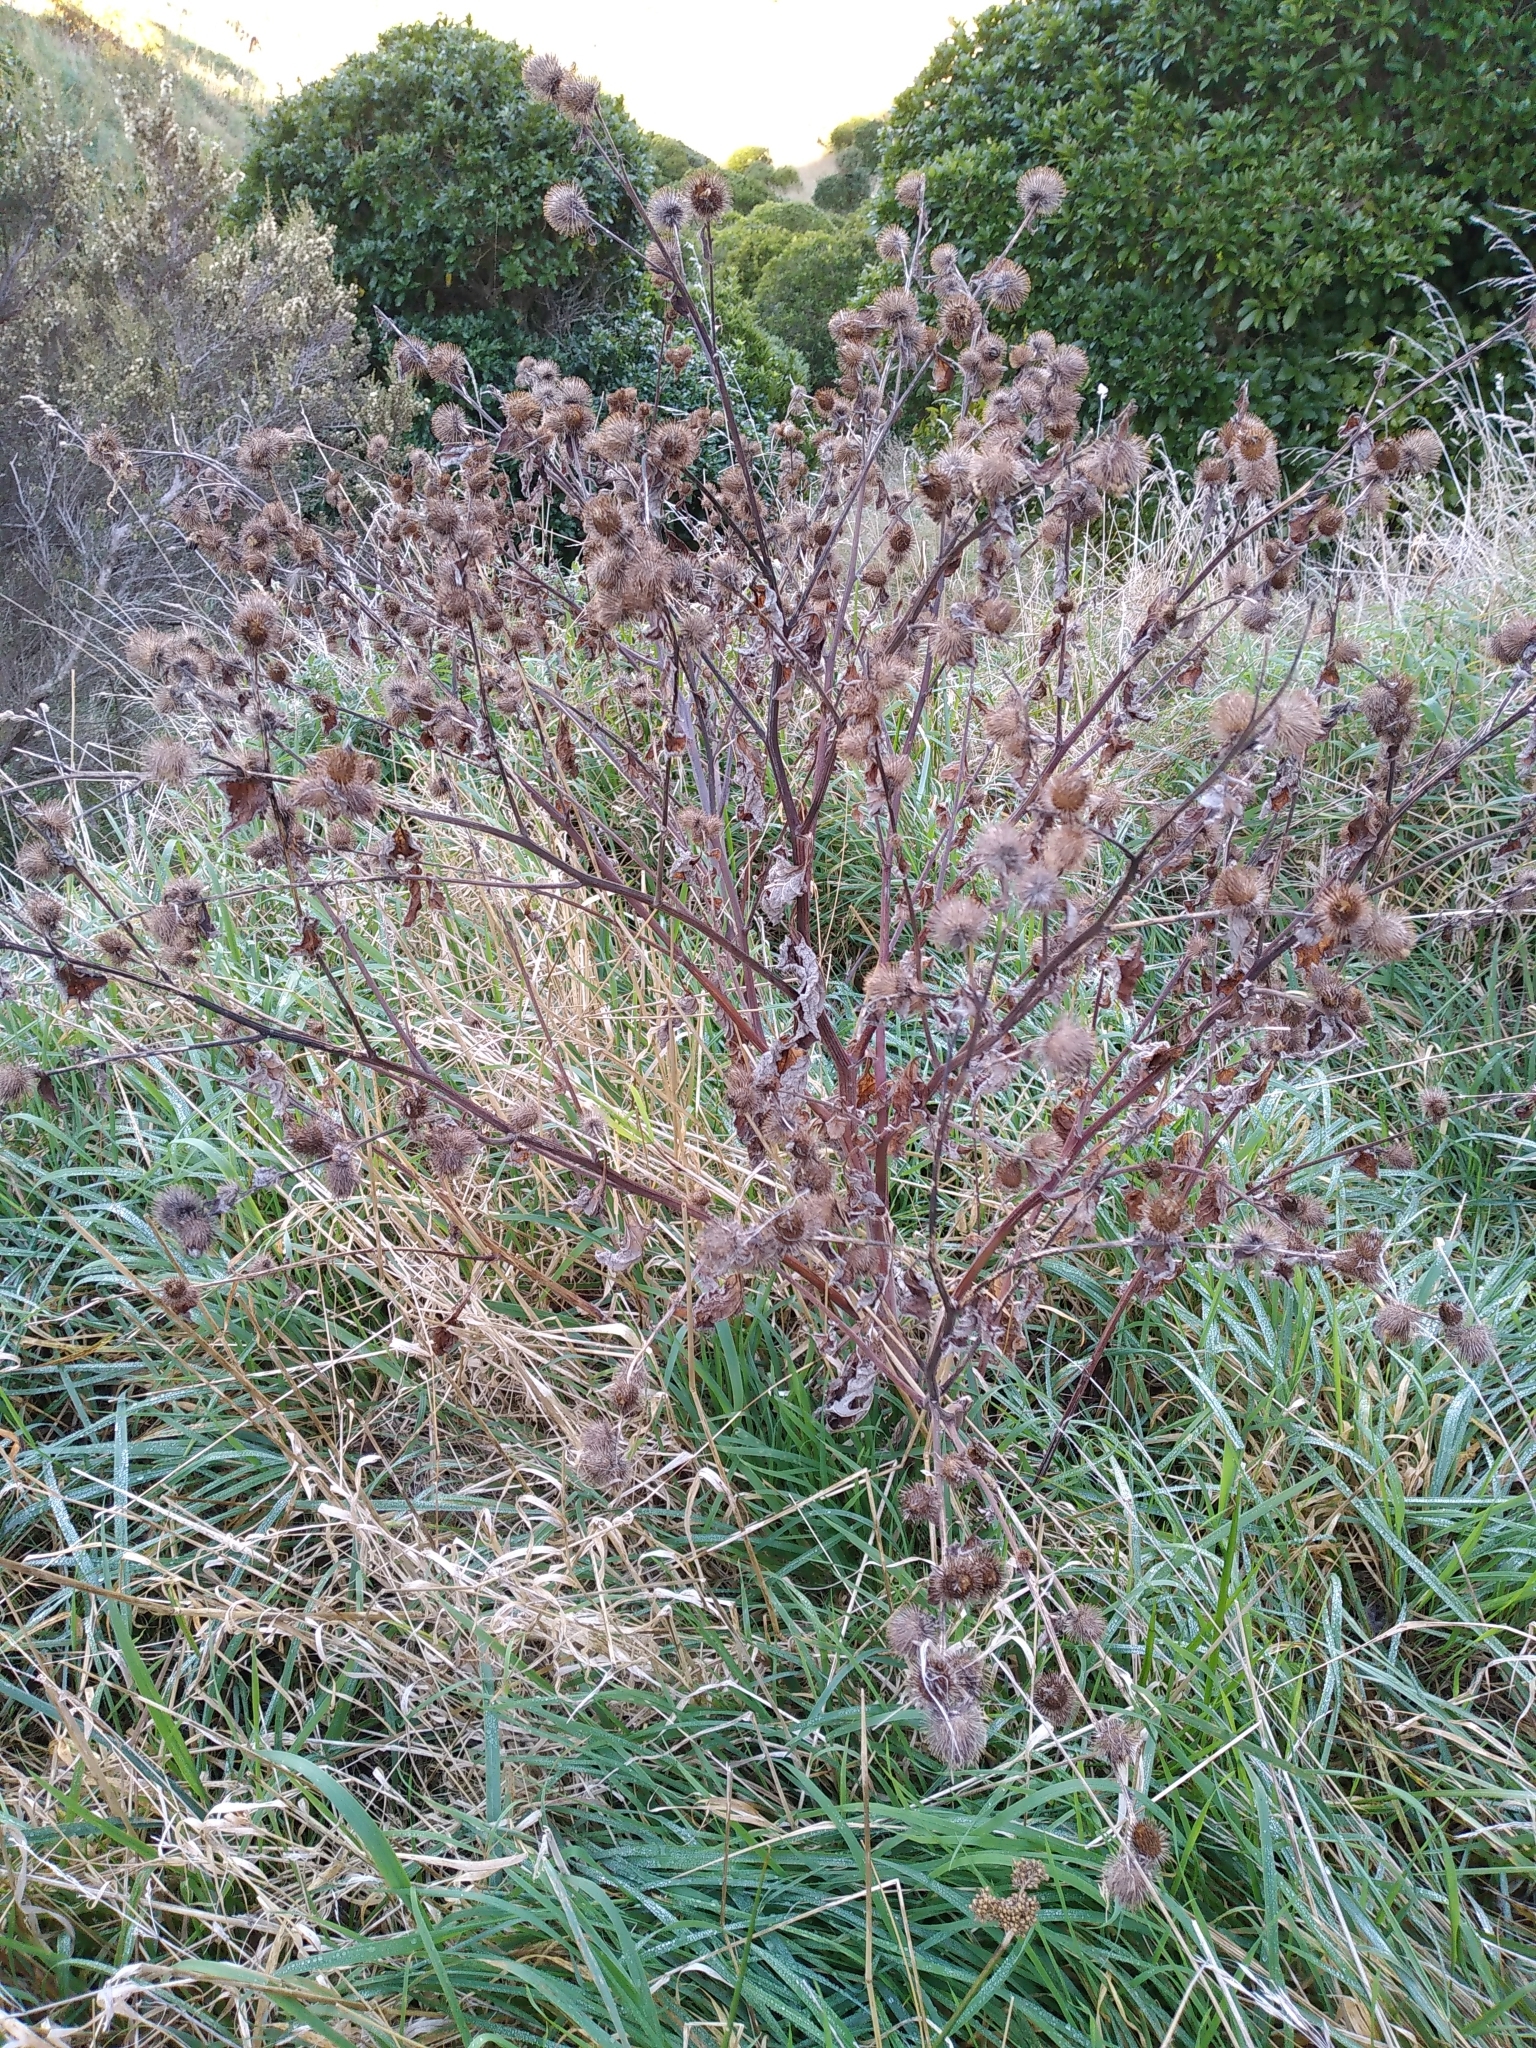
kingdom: Plantae
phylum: Tracheophyta
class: Magnoliopsida
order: Asterales
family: Asteraceae
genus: Arctium
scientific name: Arctium minus
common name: Lesser burdock
